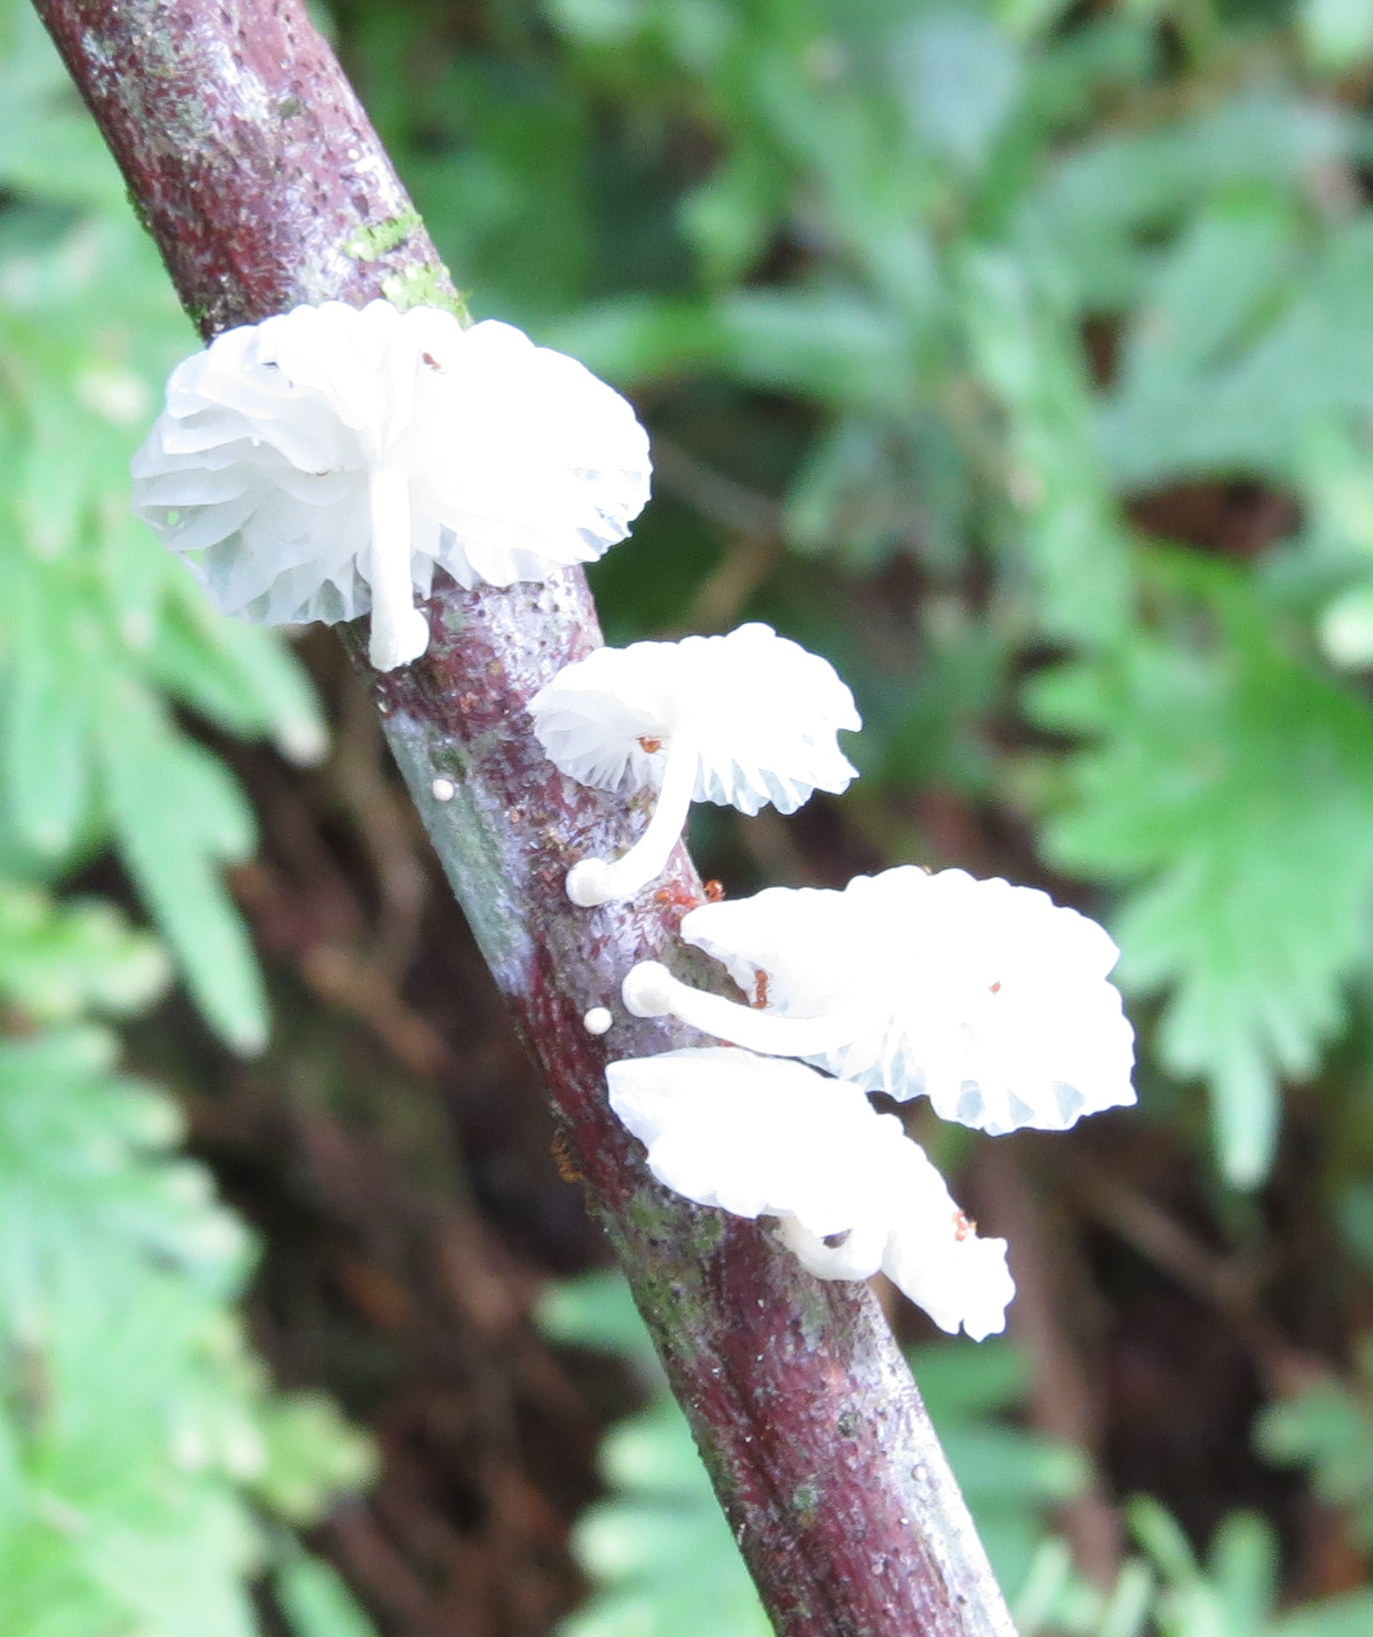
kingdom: Fungi
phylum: Basidiomycota
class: Agaricomycetes
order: Agaricales
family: Omphalotaceae
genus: Marasmiellus
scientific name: Marasmiellus cubensis
